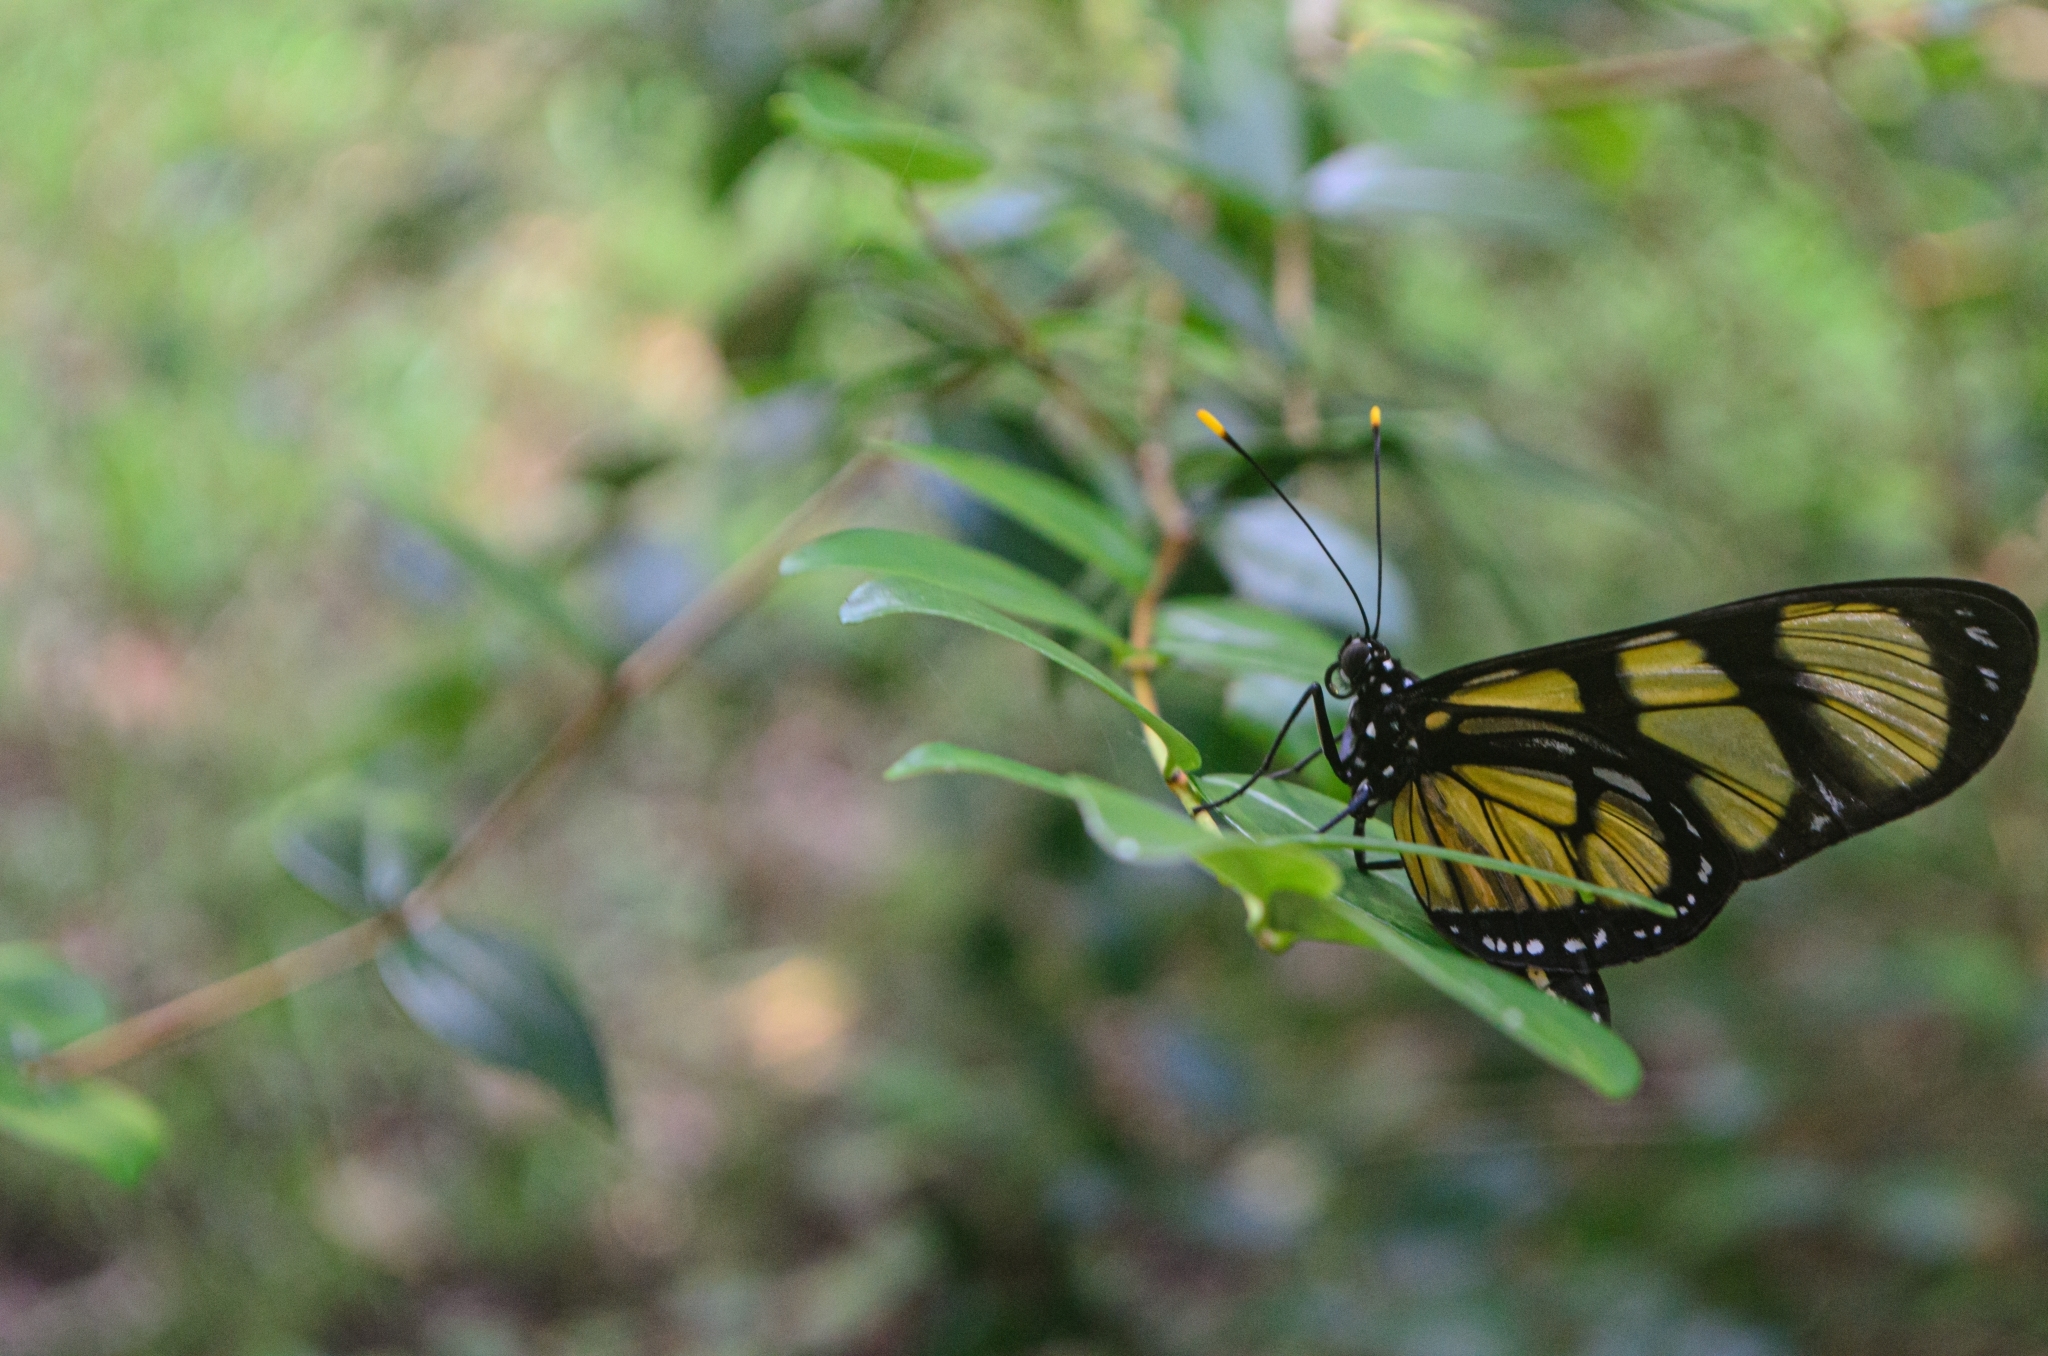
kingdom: Animalia
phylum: Arthropoda
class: Insecta
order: Lepidoptera
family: Nymphalidae
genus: Methona
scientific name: Methona themisto
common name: Themisto amberwing
